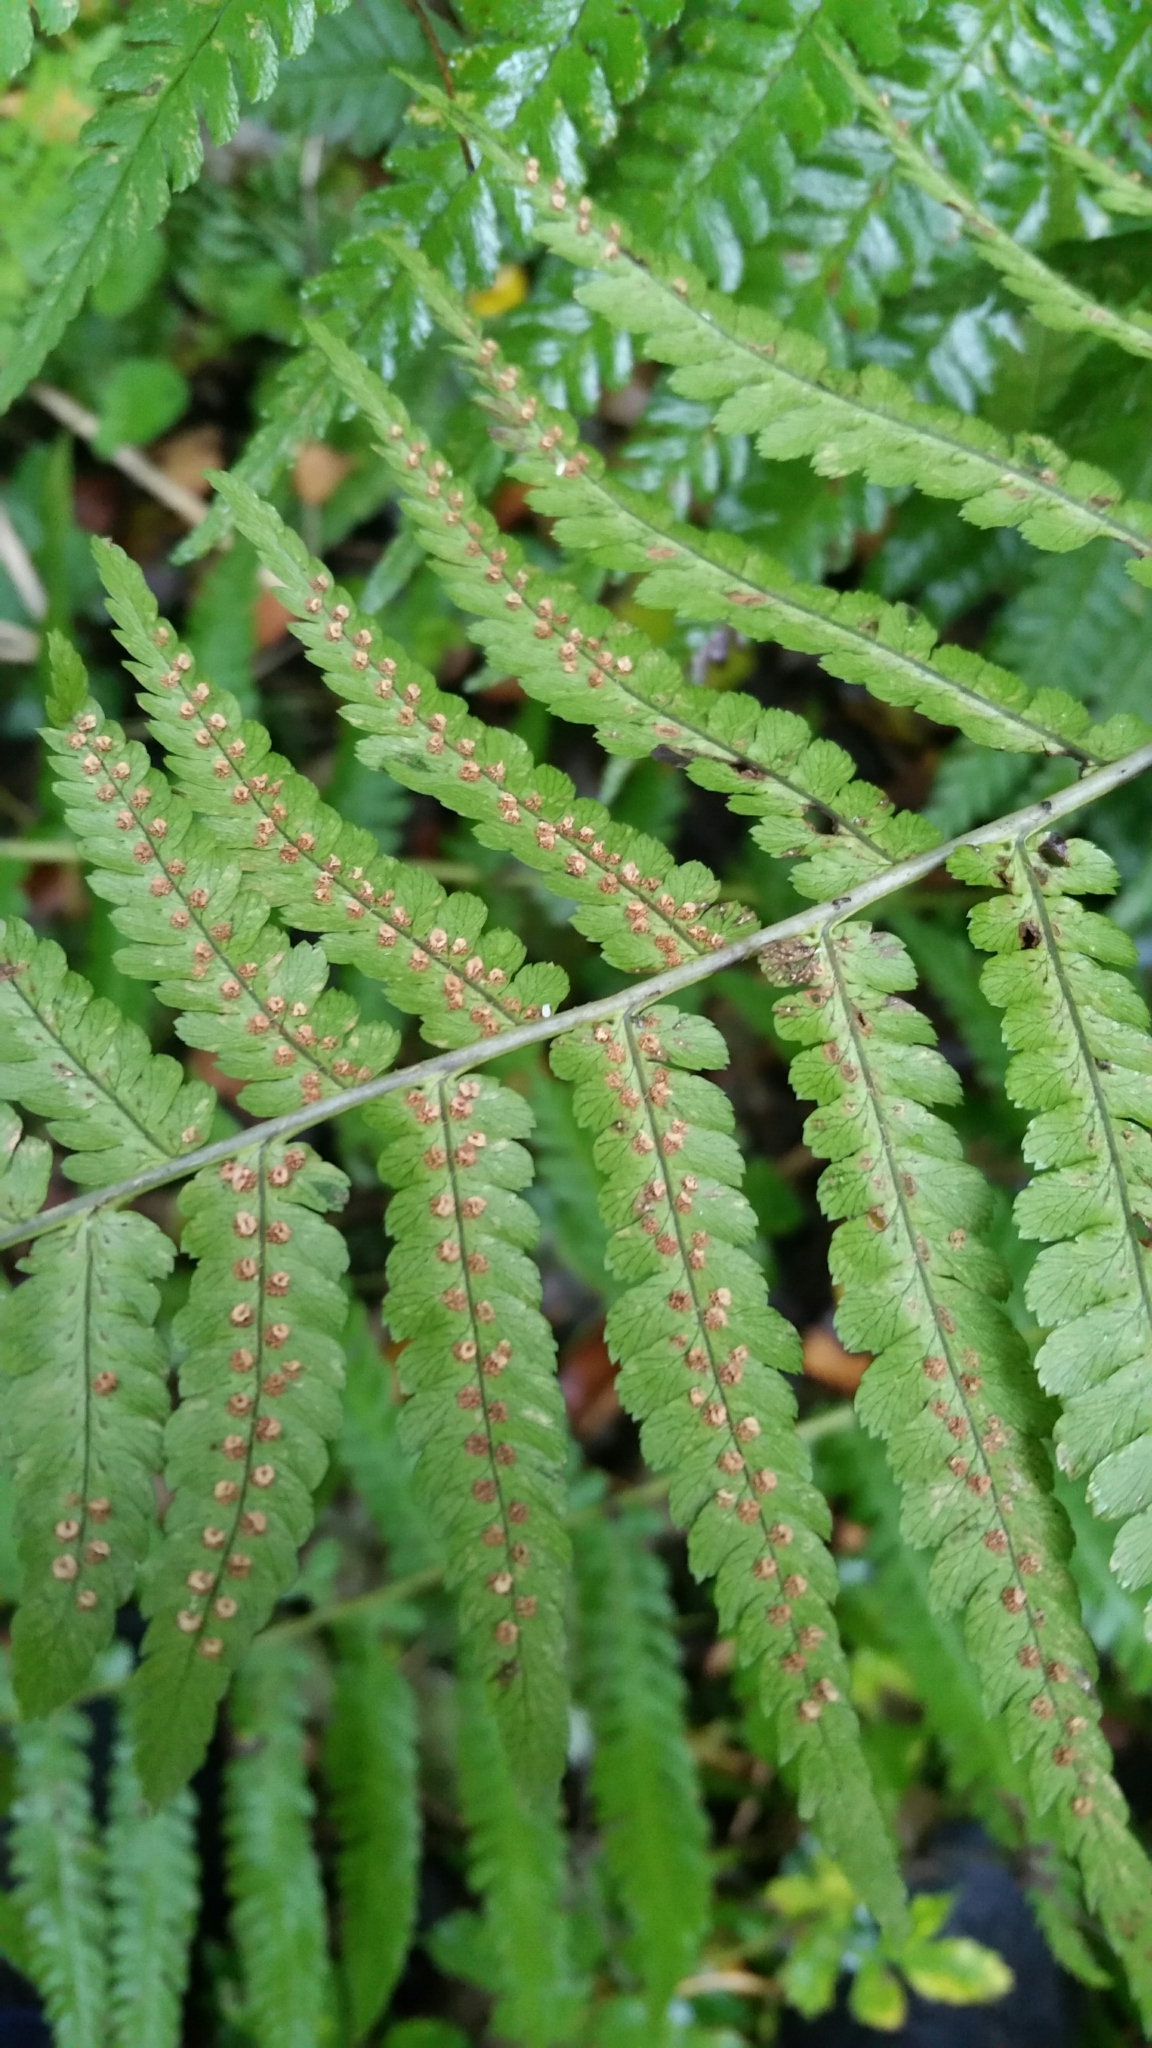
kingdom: Plantae
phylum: Tracheophyta
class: Polypodiopsida
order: Polypodiales
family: Dryopteridaceae
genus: Dryopteris
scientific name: Dryopteris filix-mas
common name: Male fern
